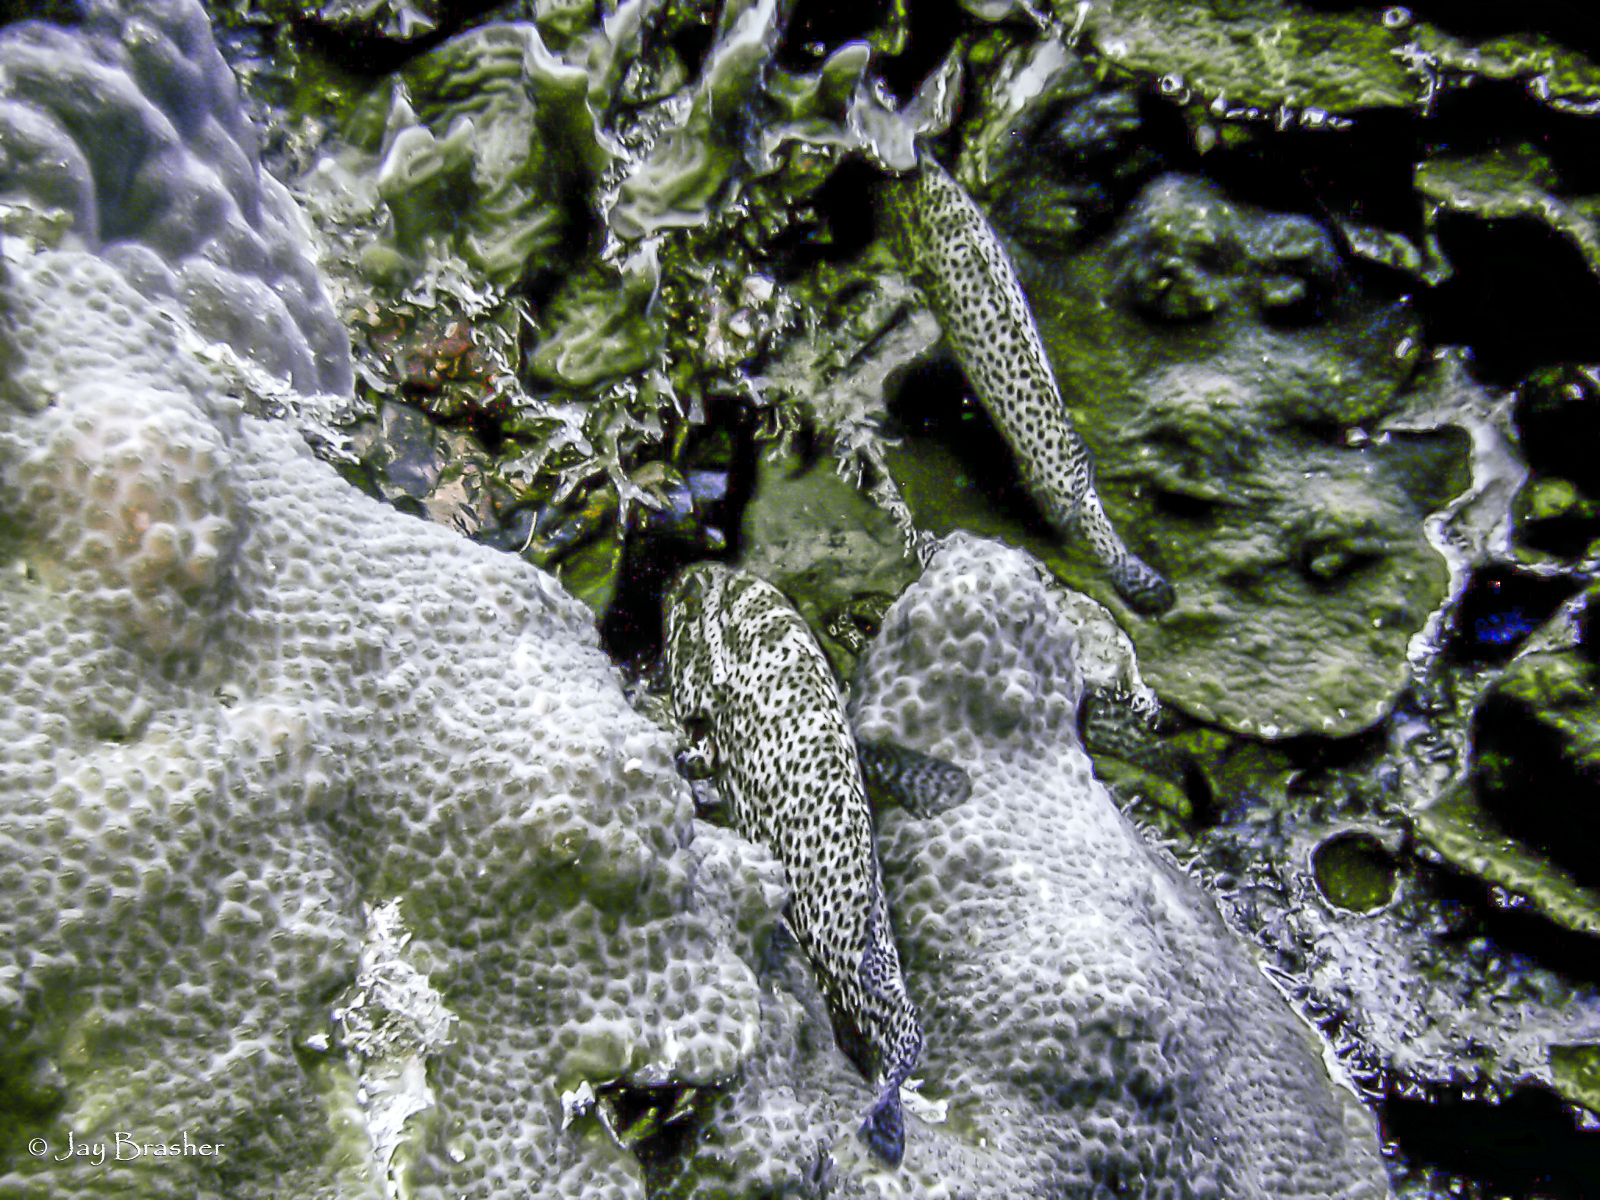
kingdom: Animalia
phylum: Chordata
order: Perciformes
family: Serranidae
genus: Cephalopholis
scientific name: Cephalopholis cruentata
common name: Graysby
